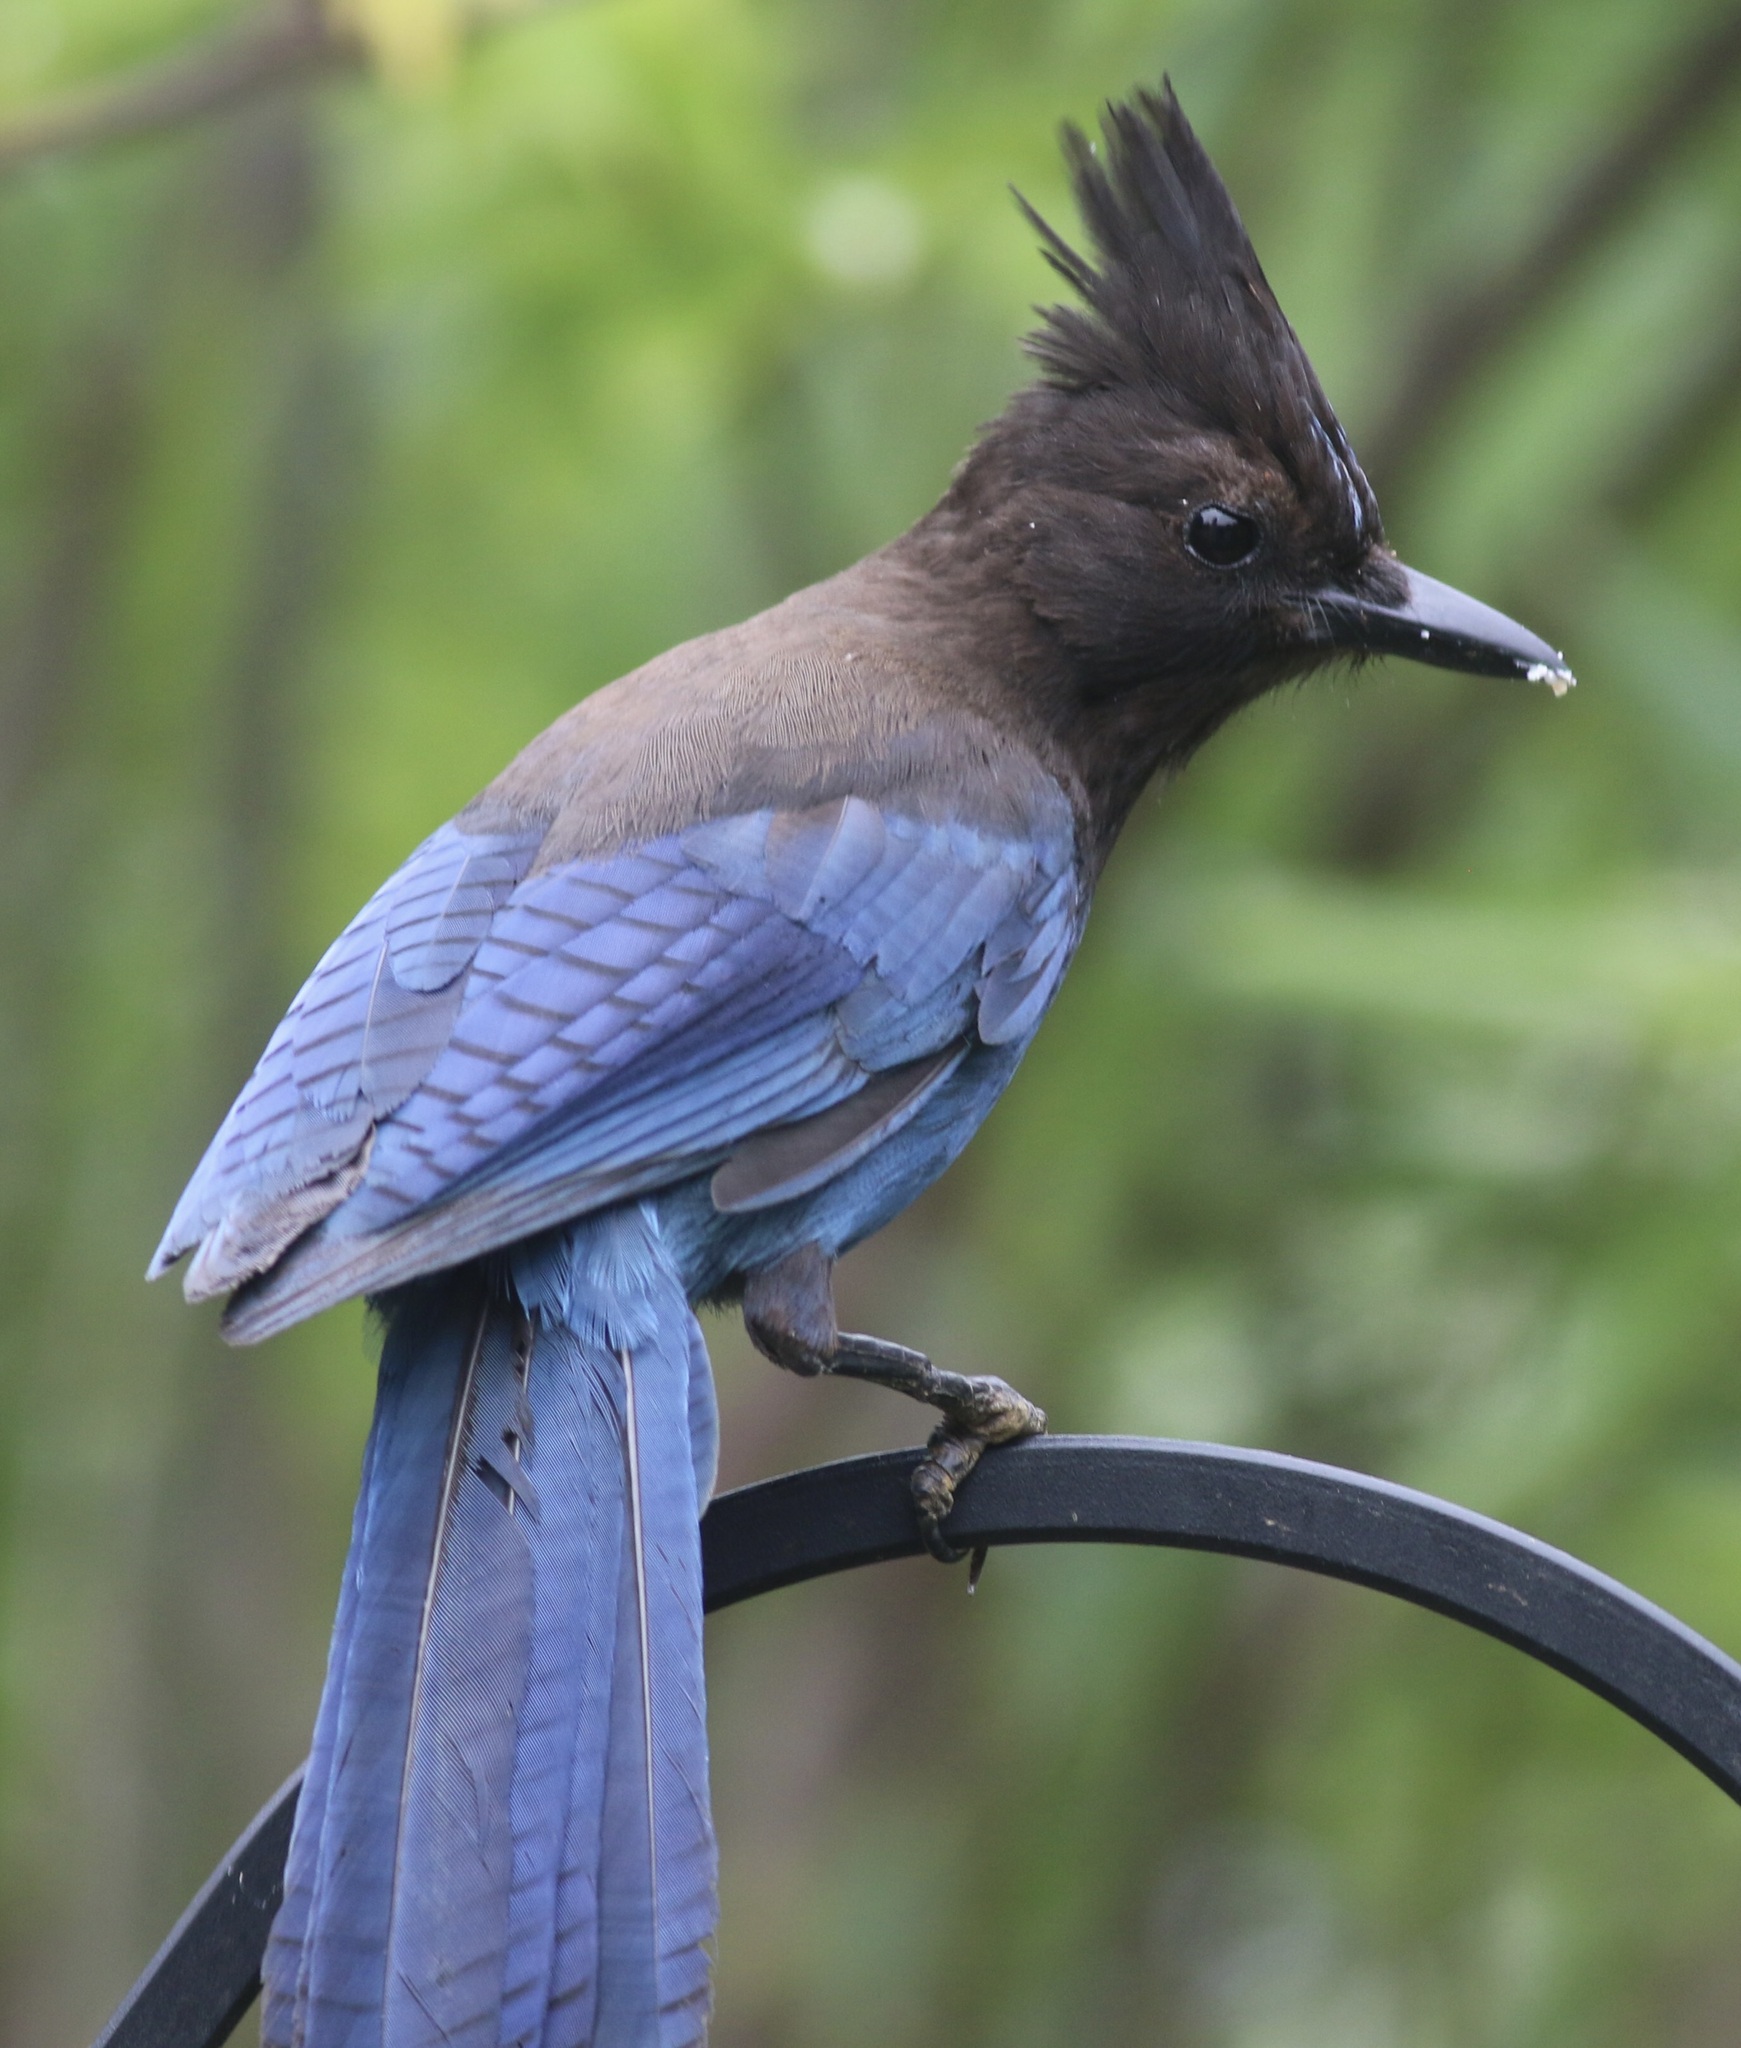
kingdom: Animalia
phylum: Chordata
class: Aves
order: Passeriformes
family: Corvidae
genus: Cyanocitta
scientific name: Cyanocitta stelleri
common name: Steller's jay
